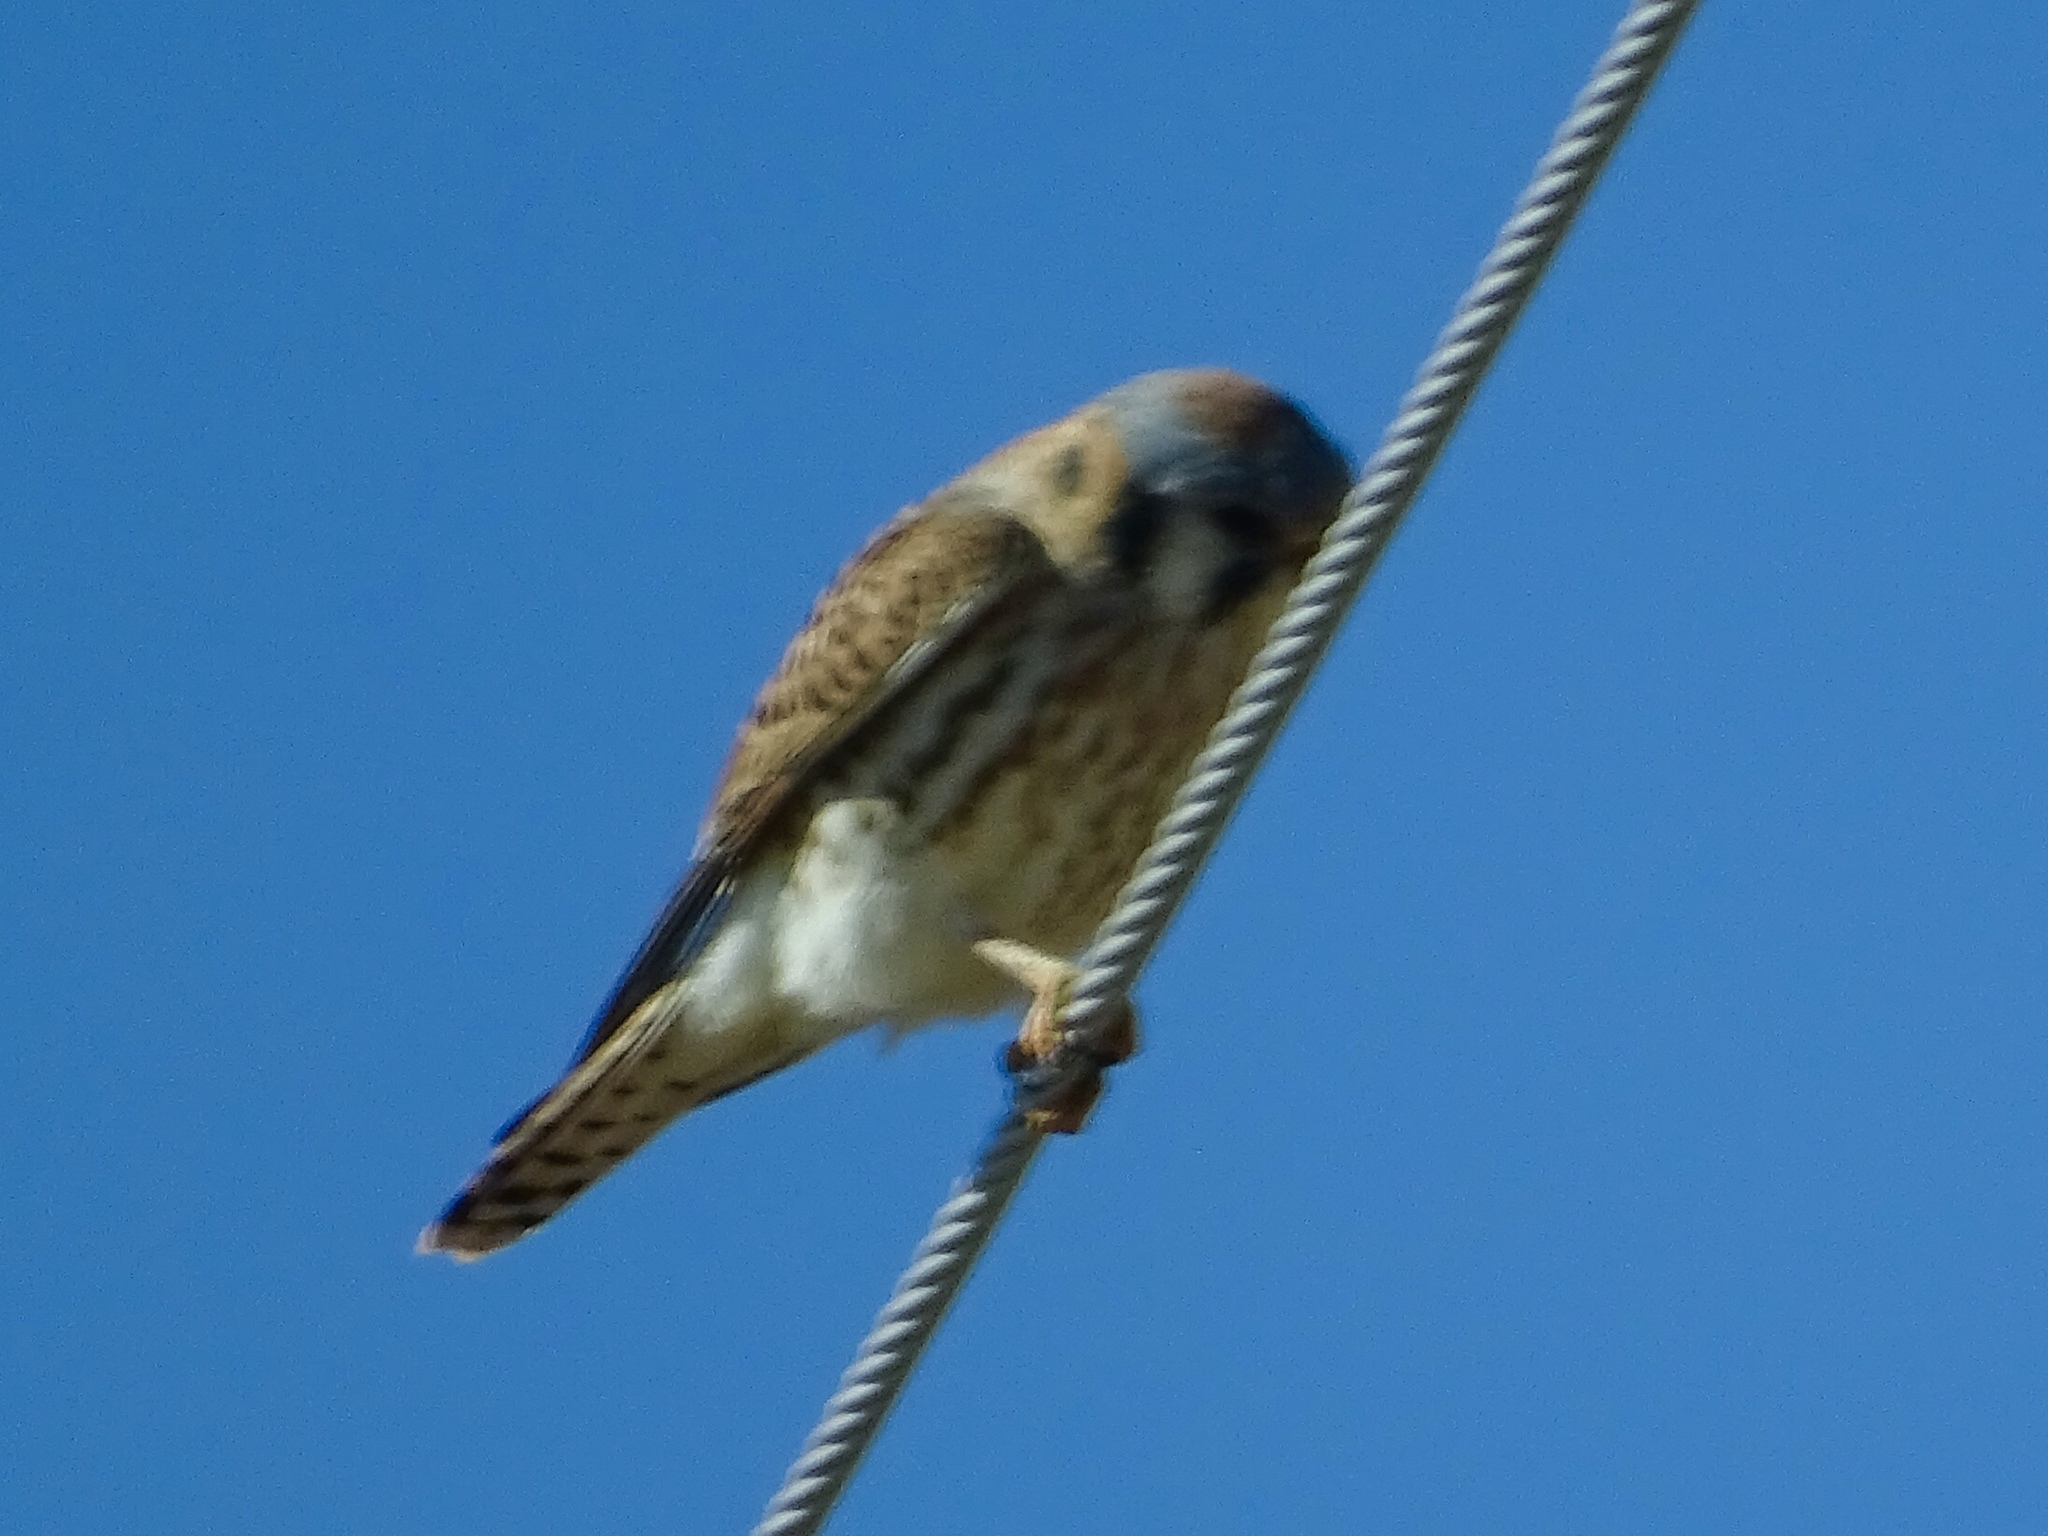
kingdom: Animalia
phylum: Chordata
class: Aves
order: Falconiformes
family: Falconidae
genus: Falco
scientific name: Falco sparverius
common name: American kestrel
